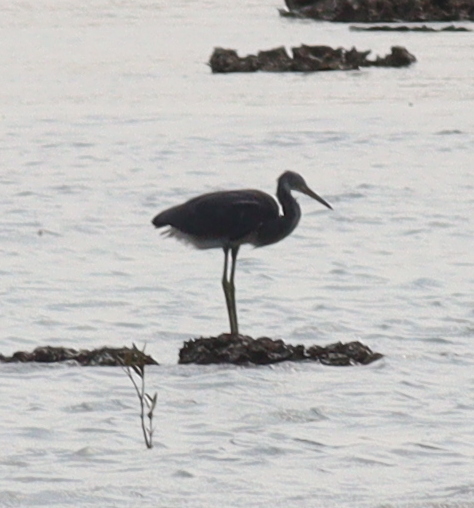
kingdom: Animalia
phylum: Chordata
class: Aves
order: Pelecaniformes
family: Ardeidae
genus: Egretta
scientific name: Egretta gularis
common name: Western reef-heron
